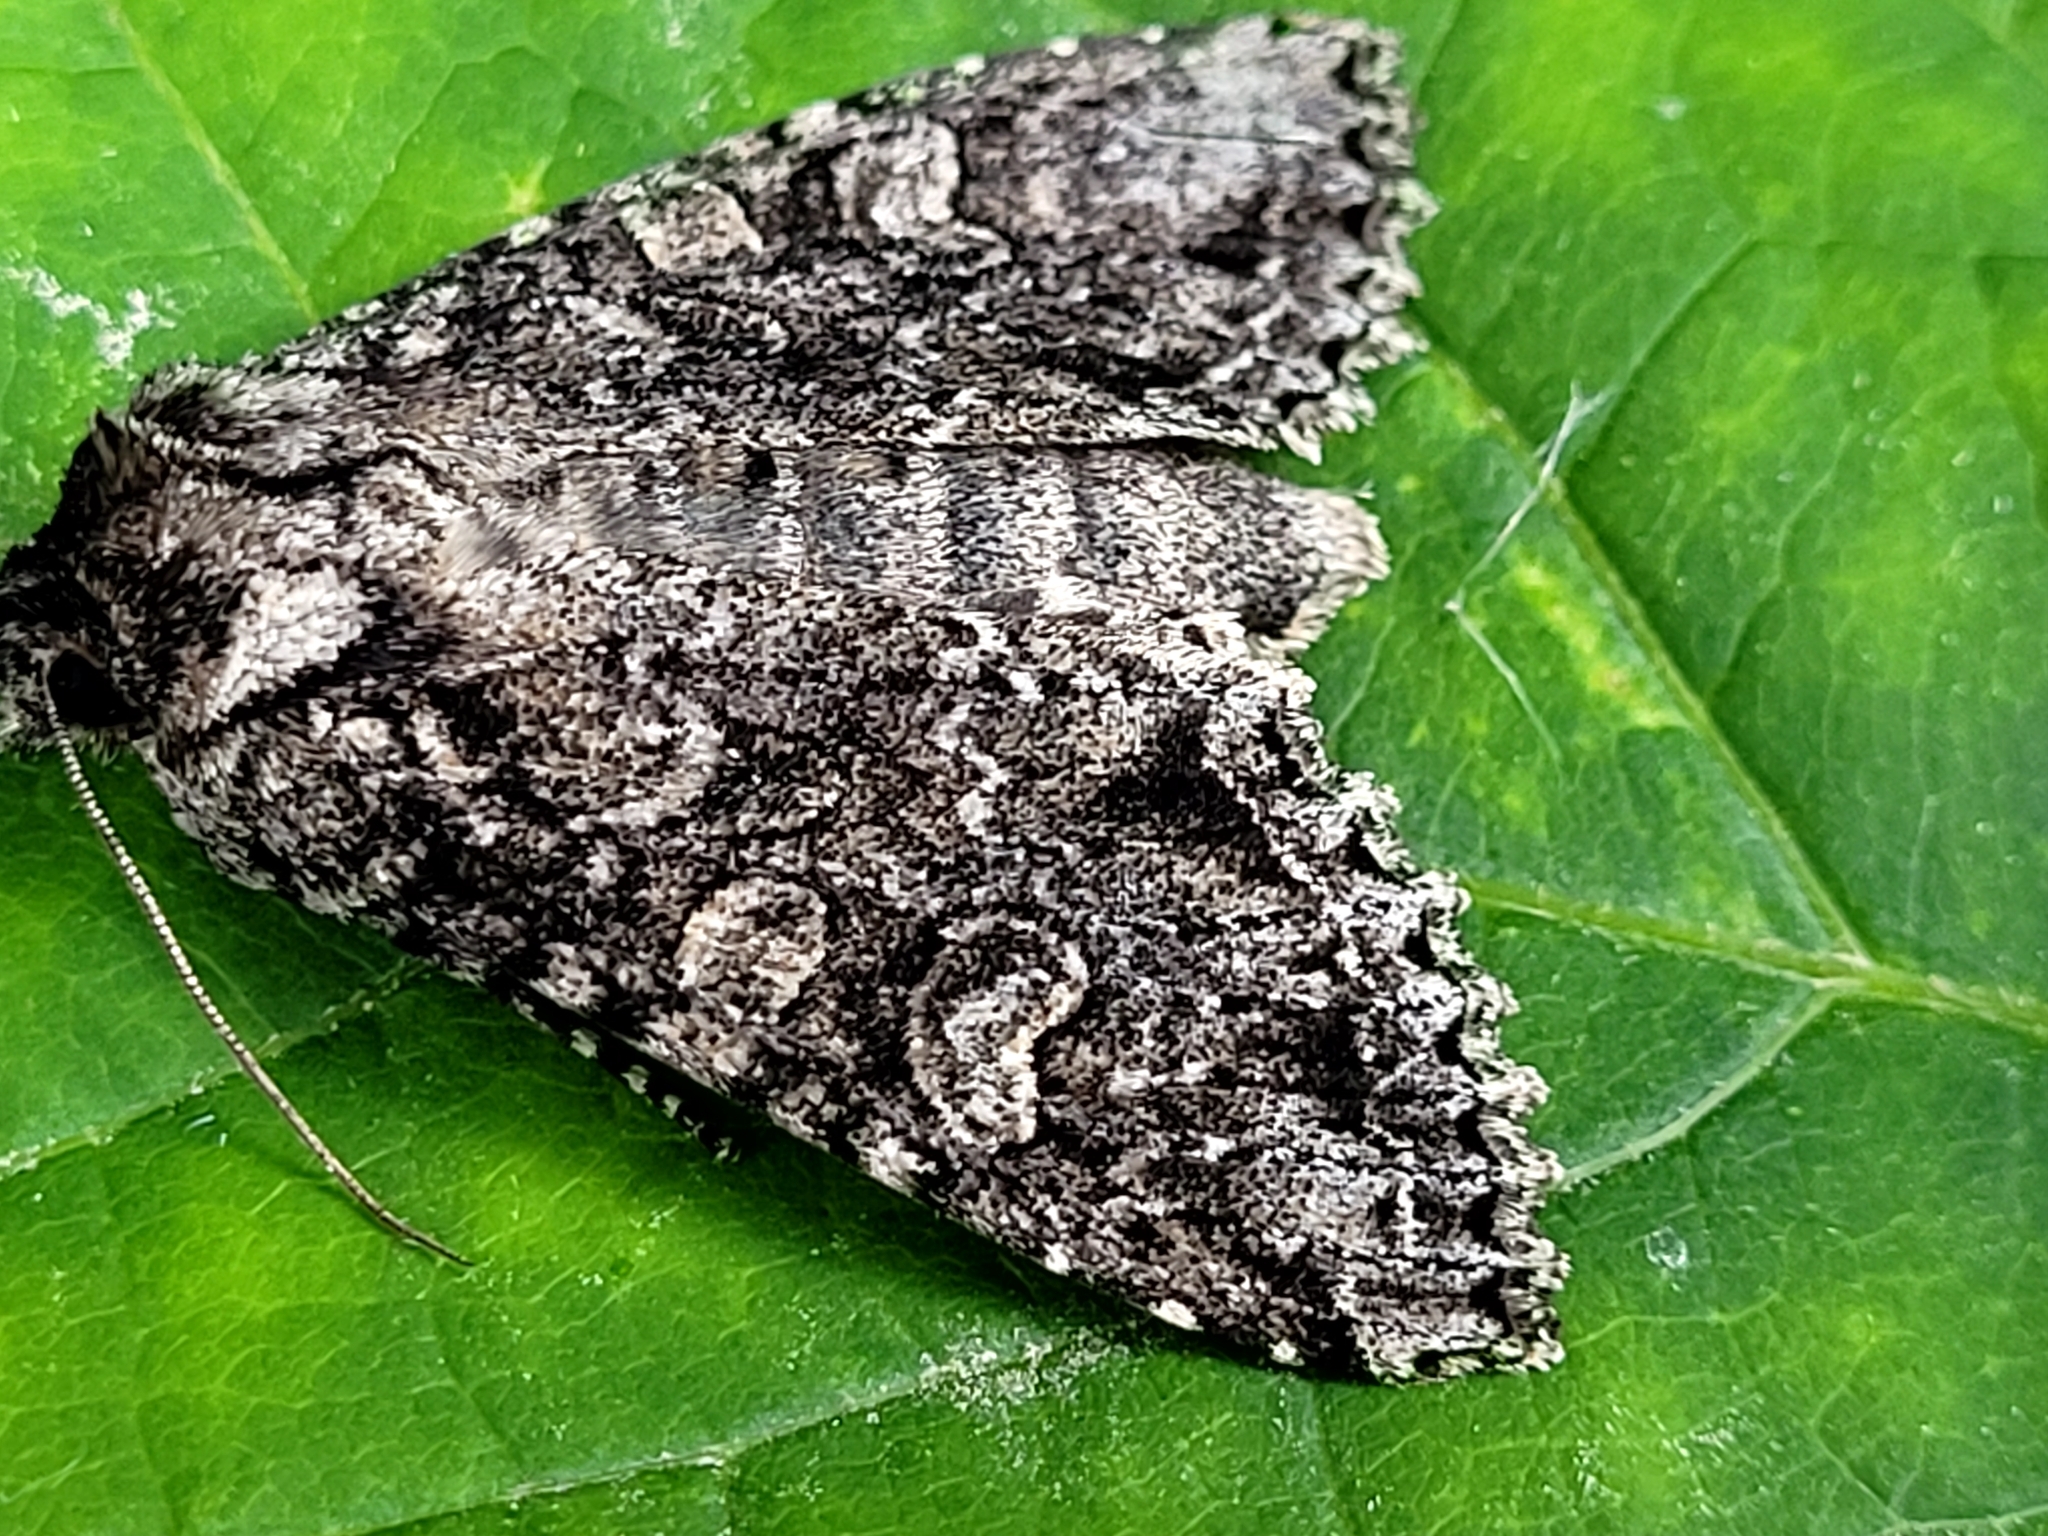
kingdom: Animalia
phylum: Arthropoda
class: Insecta
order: Lepidoptera
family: Noctuidae
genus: Polia
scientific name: Polia imbrifera
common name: Cloudy arches moth
